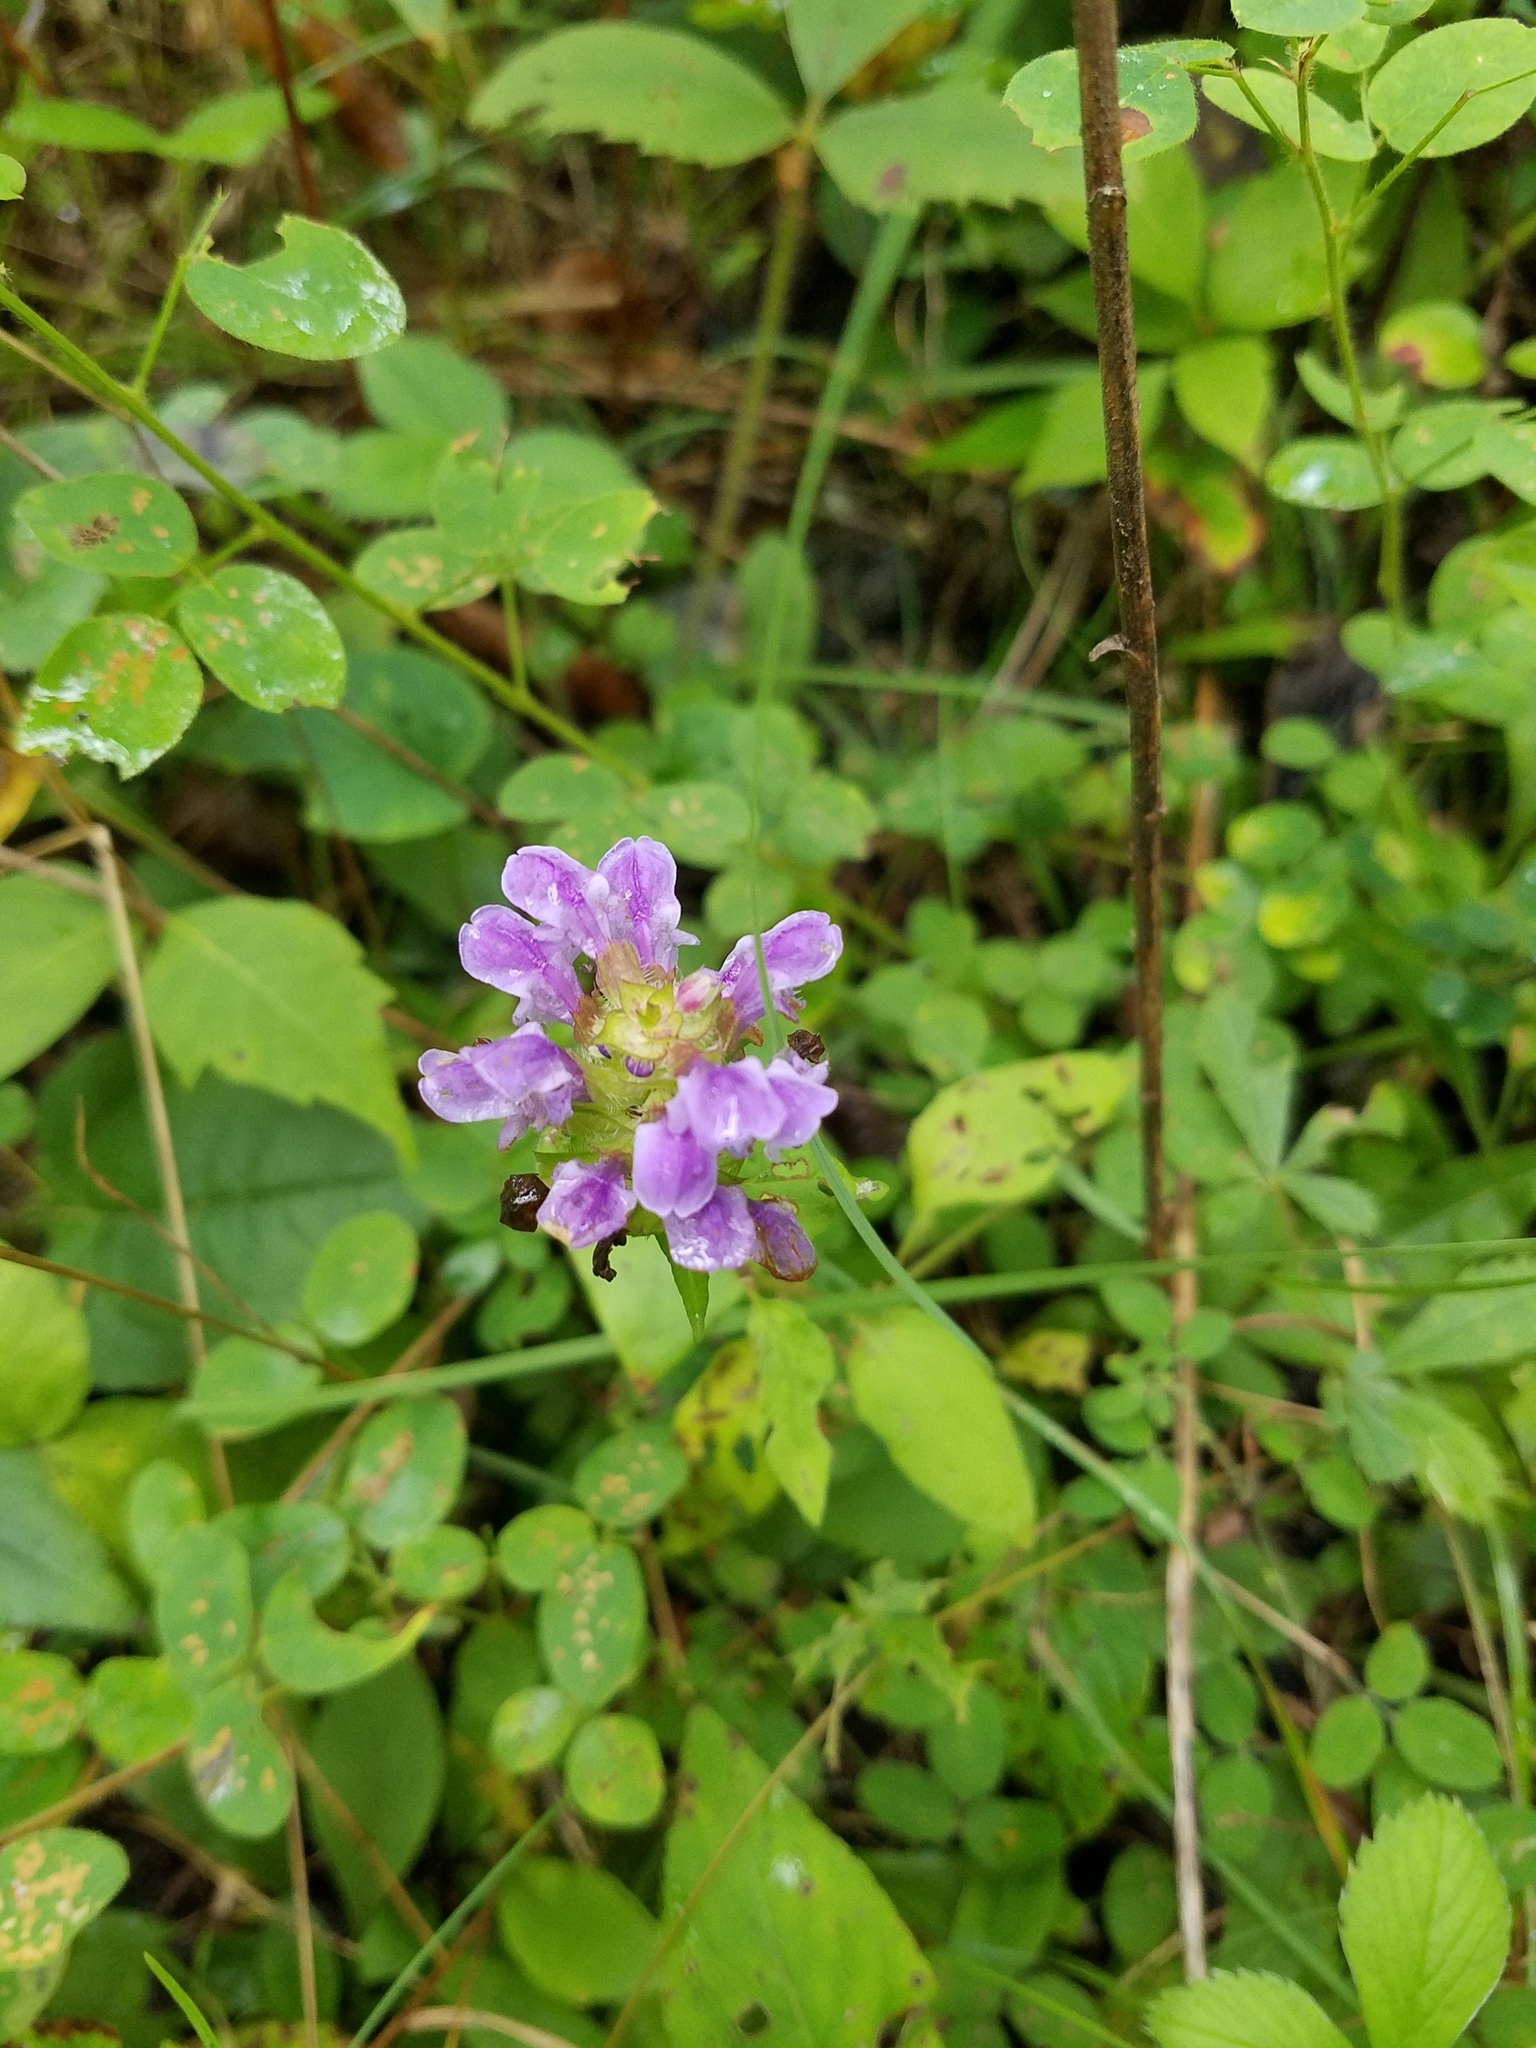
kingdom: Plantae
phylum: Tracheophyta
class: Magnoliopsida
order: Lamiales
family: Lamiaceae
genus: Prunella
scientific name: Prunella vulgaris
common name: Heal-all
